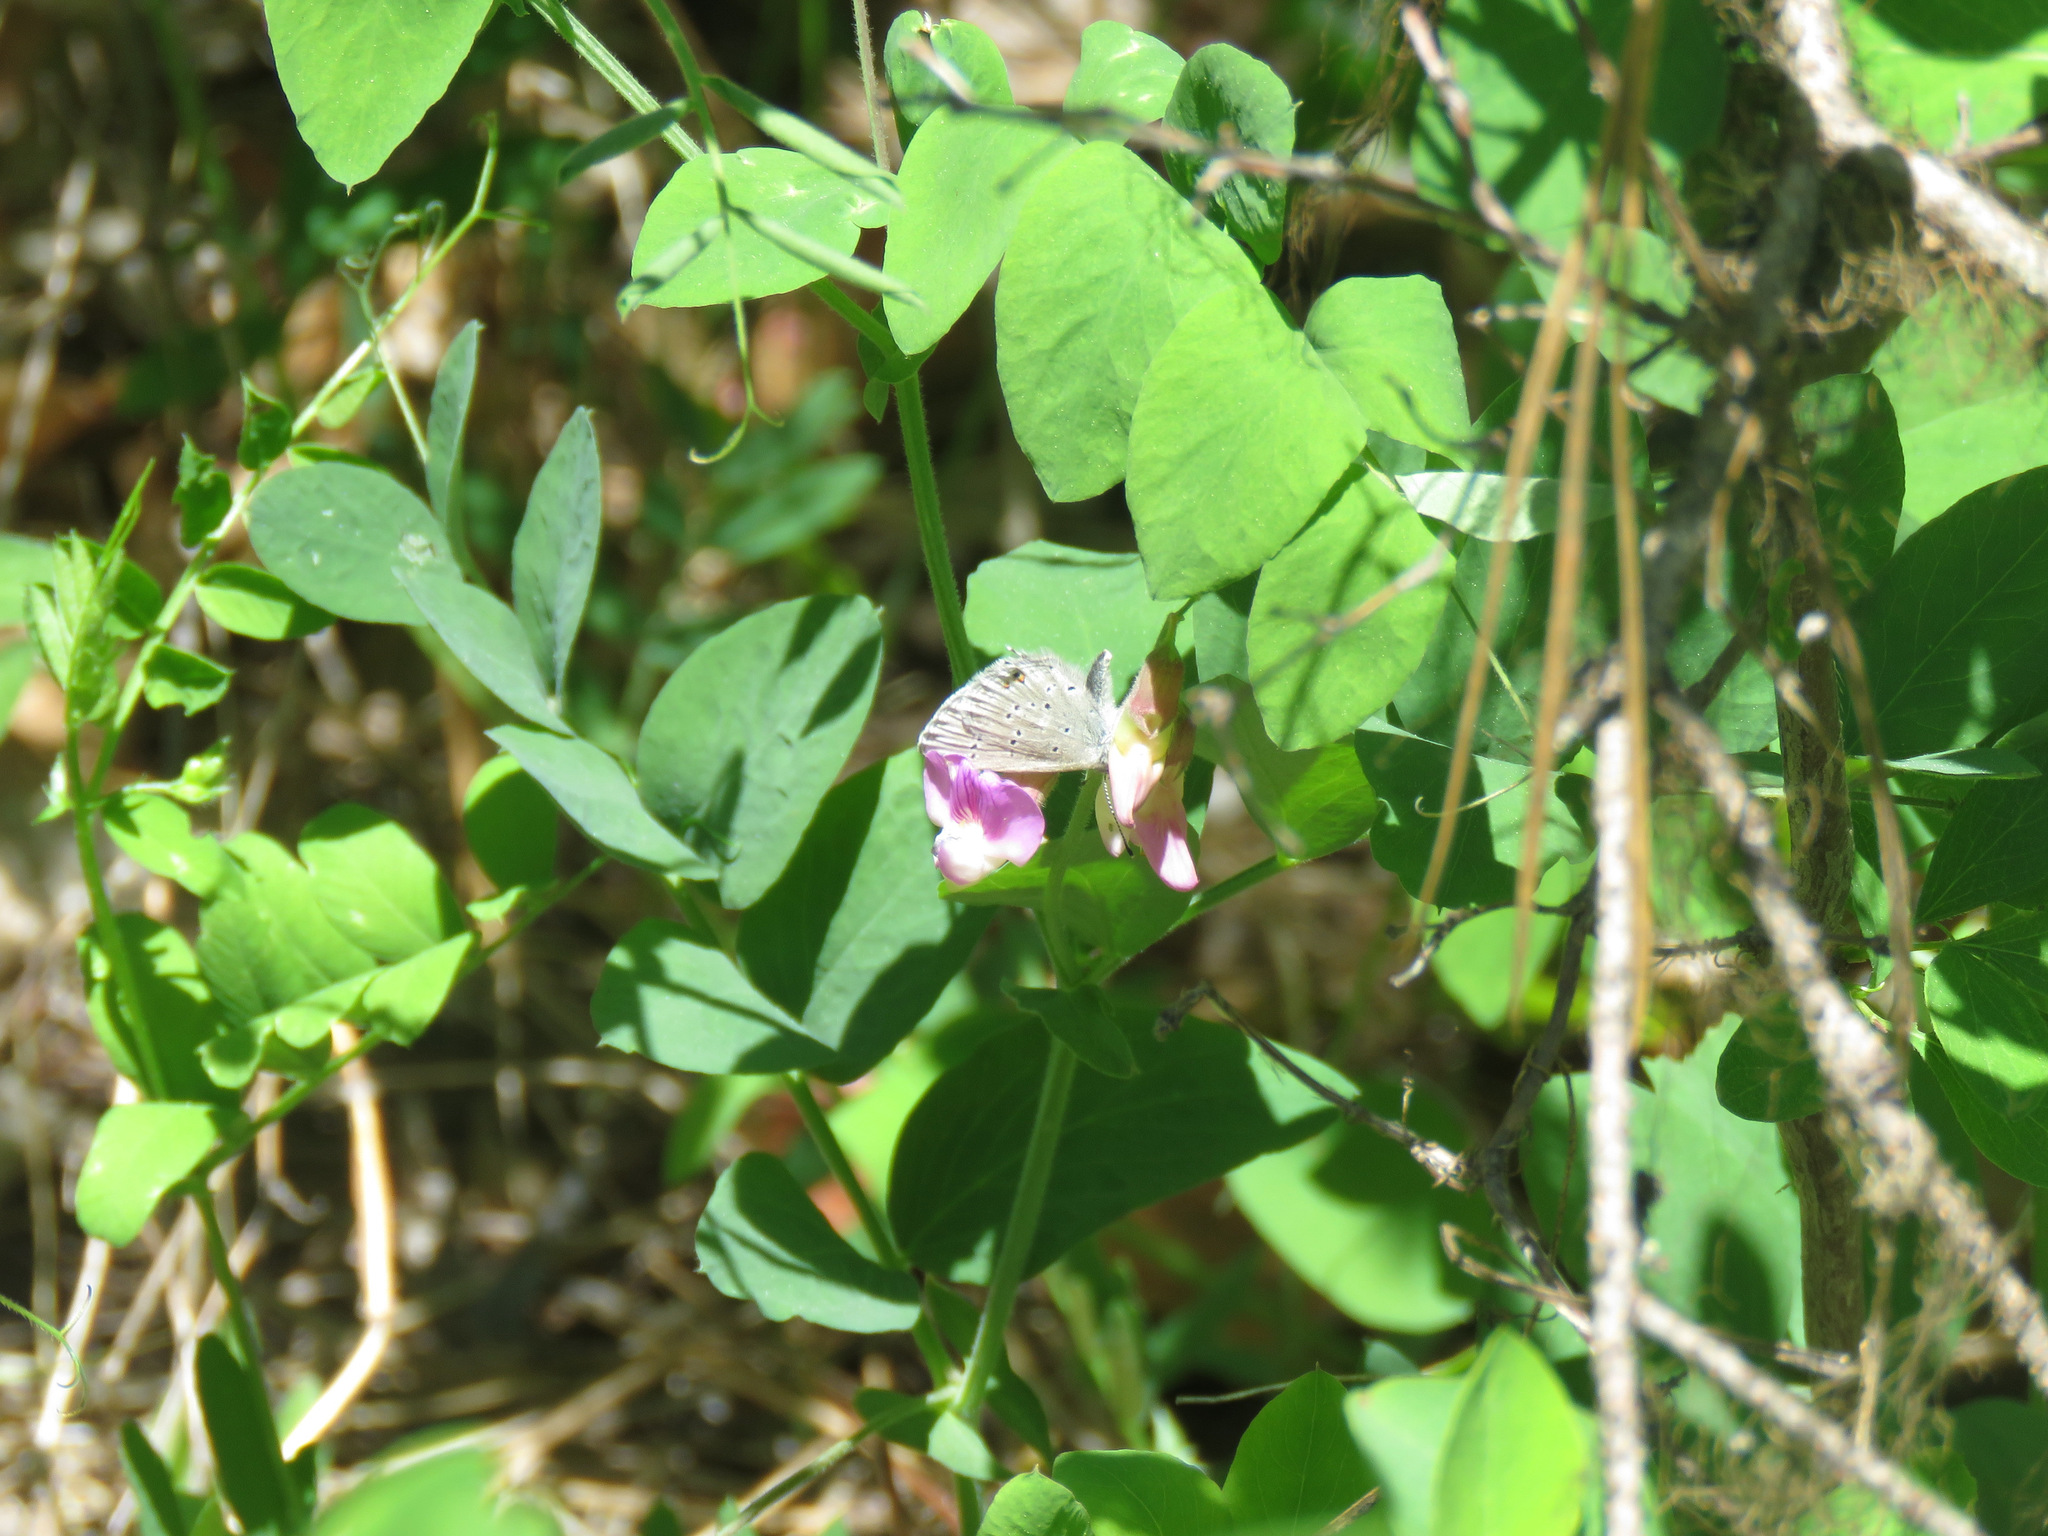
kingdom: Animalia
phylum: Arthropoda
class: Insecta
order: Lepidoptera
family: Lycaenidae
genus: Elkalyce
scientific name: Elkalyce amyntula
